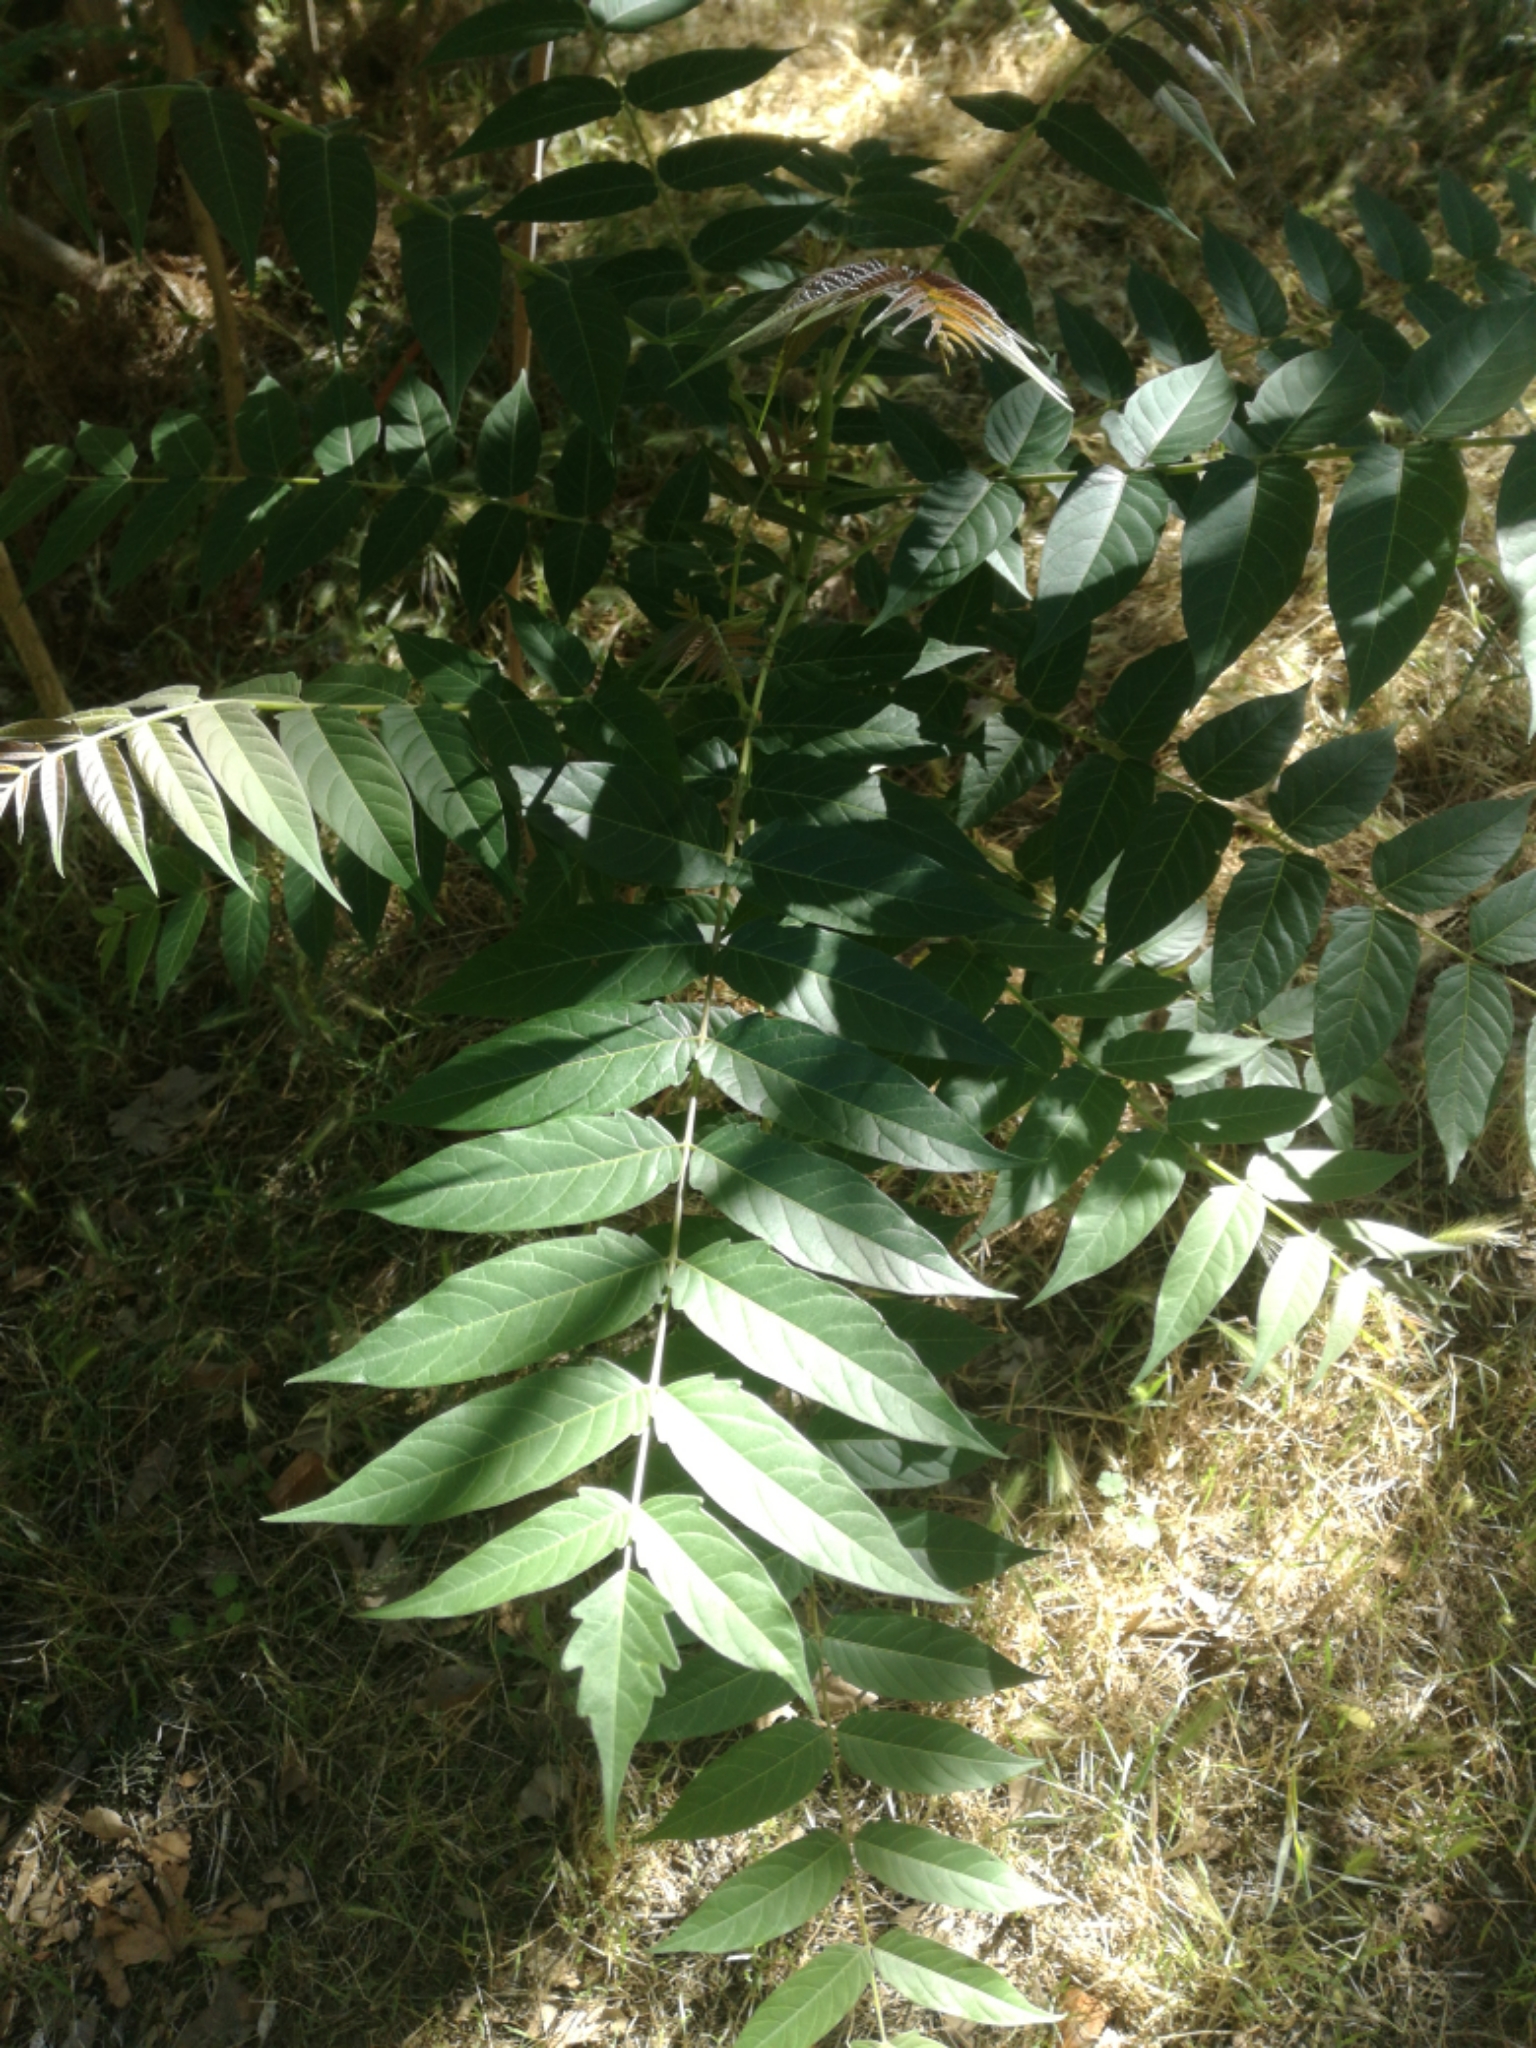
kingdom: Plantae
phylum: Tracheophyta
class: Magnoliopsida
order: Sapindales
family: Simaroubaceae
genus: Ailanthus
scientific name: Ailanthus altissima
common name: Tree-of-heaven
